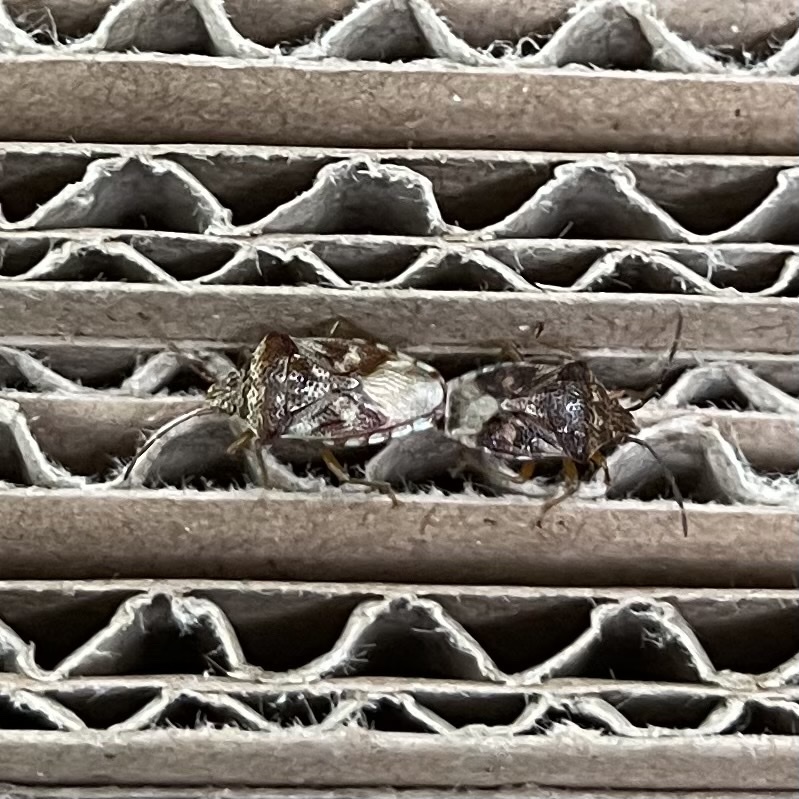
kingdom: Animalia
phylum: Arthropoda
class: Insecta
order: Hemiptera
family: Acanthosomatidae
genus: Elasmucha
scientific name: Elasmucha lateralis
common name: Shield bug
